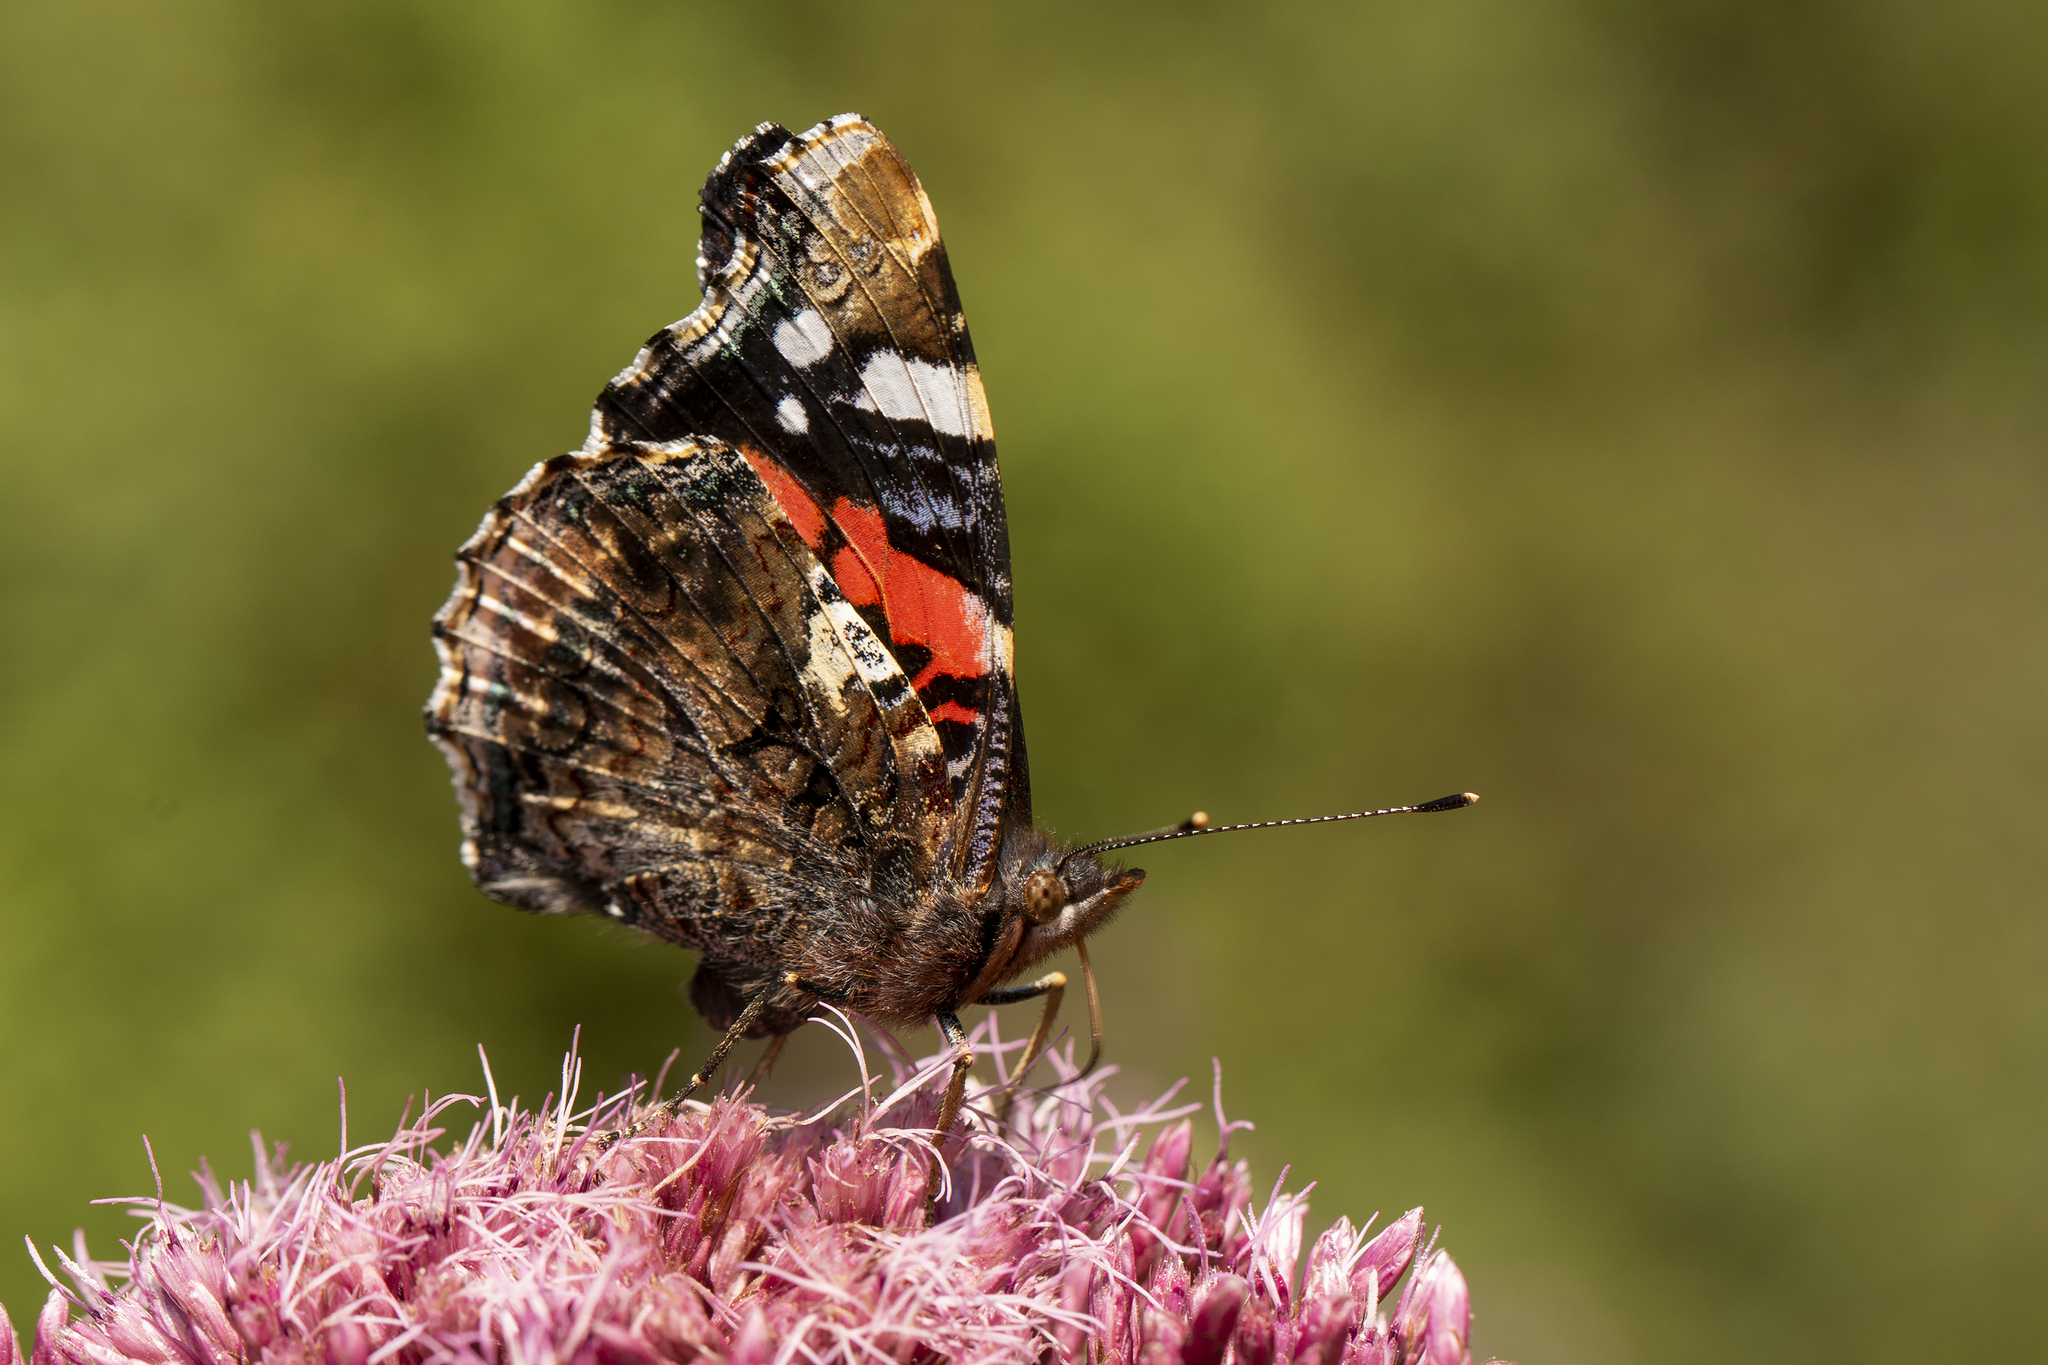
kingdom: Animalia
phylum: Arthropoda
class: Insecta
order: Lepidoptera
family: Nymphalidae
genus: Vanessa
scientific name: Vanessa atalanta
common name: Red admiral
